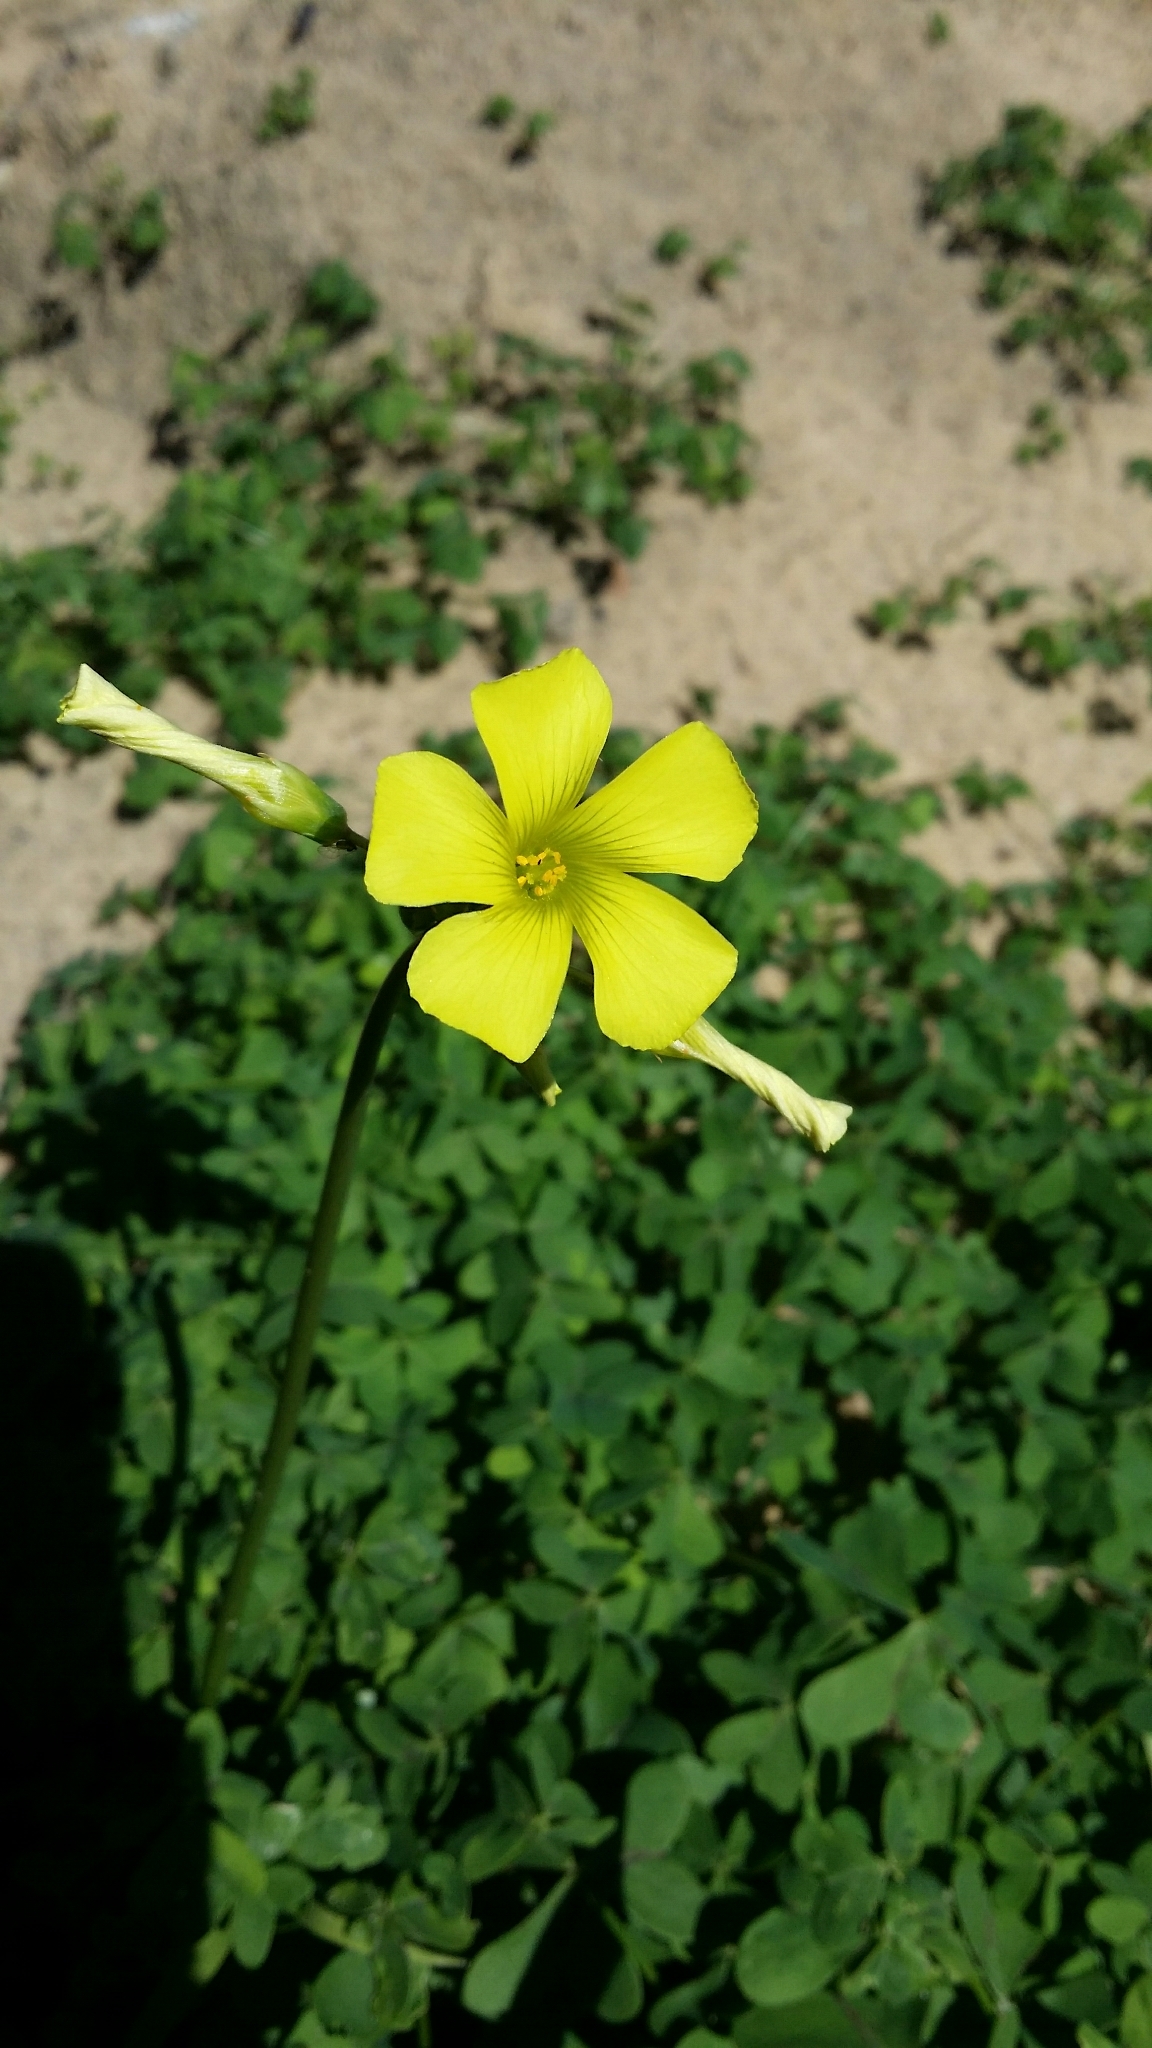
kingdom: Plantae
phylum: Tracheophyta
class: Magnoliopsida
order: Oxalidales
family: Oxalidaceae
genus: Oxalis
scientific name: Oxalis pes-caprae
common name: Bermuda-buttercup
